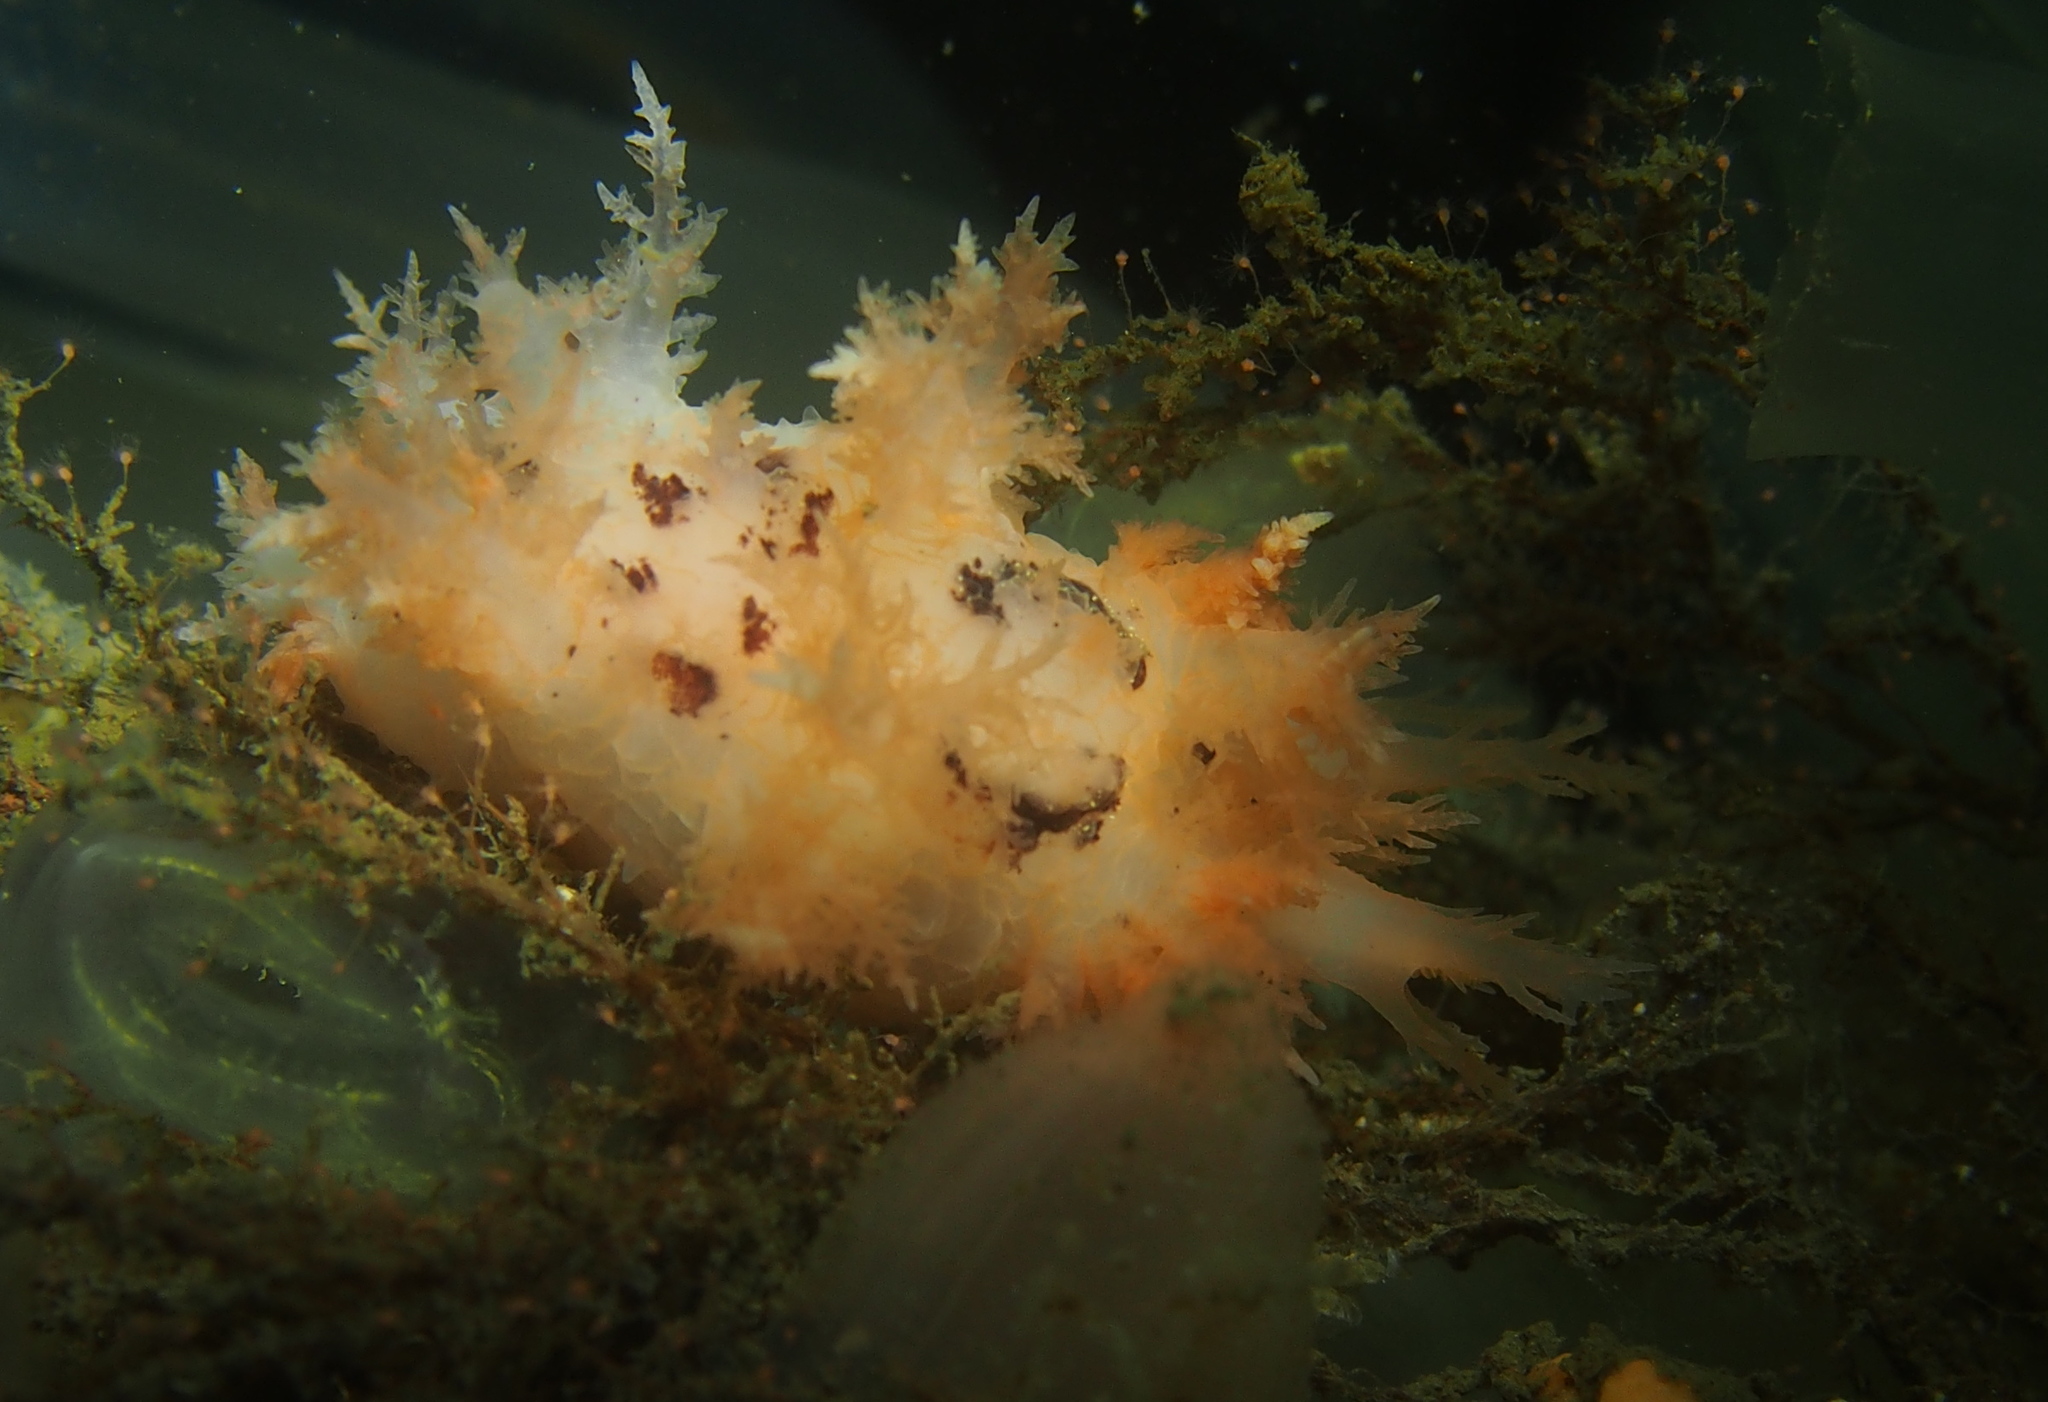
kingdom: Animalia
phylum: Mollusca
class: Gastropoda
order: Nudibranchia
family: Dendronotidae
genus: Dendronotus
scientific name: Dendronotus frondosus
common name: Bushy-backed nudibranch
